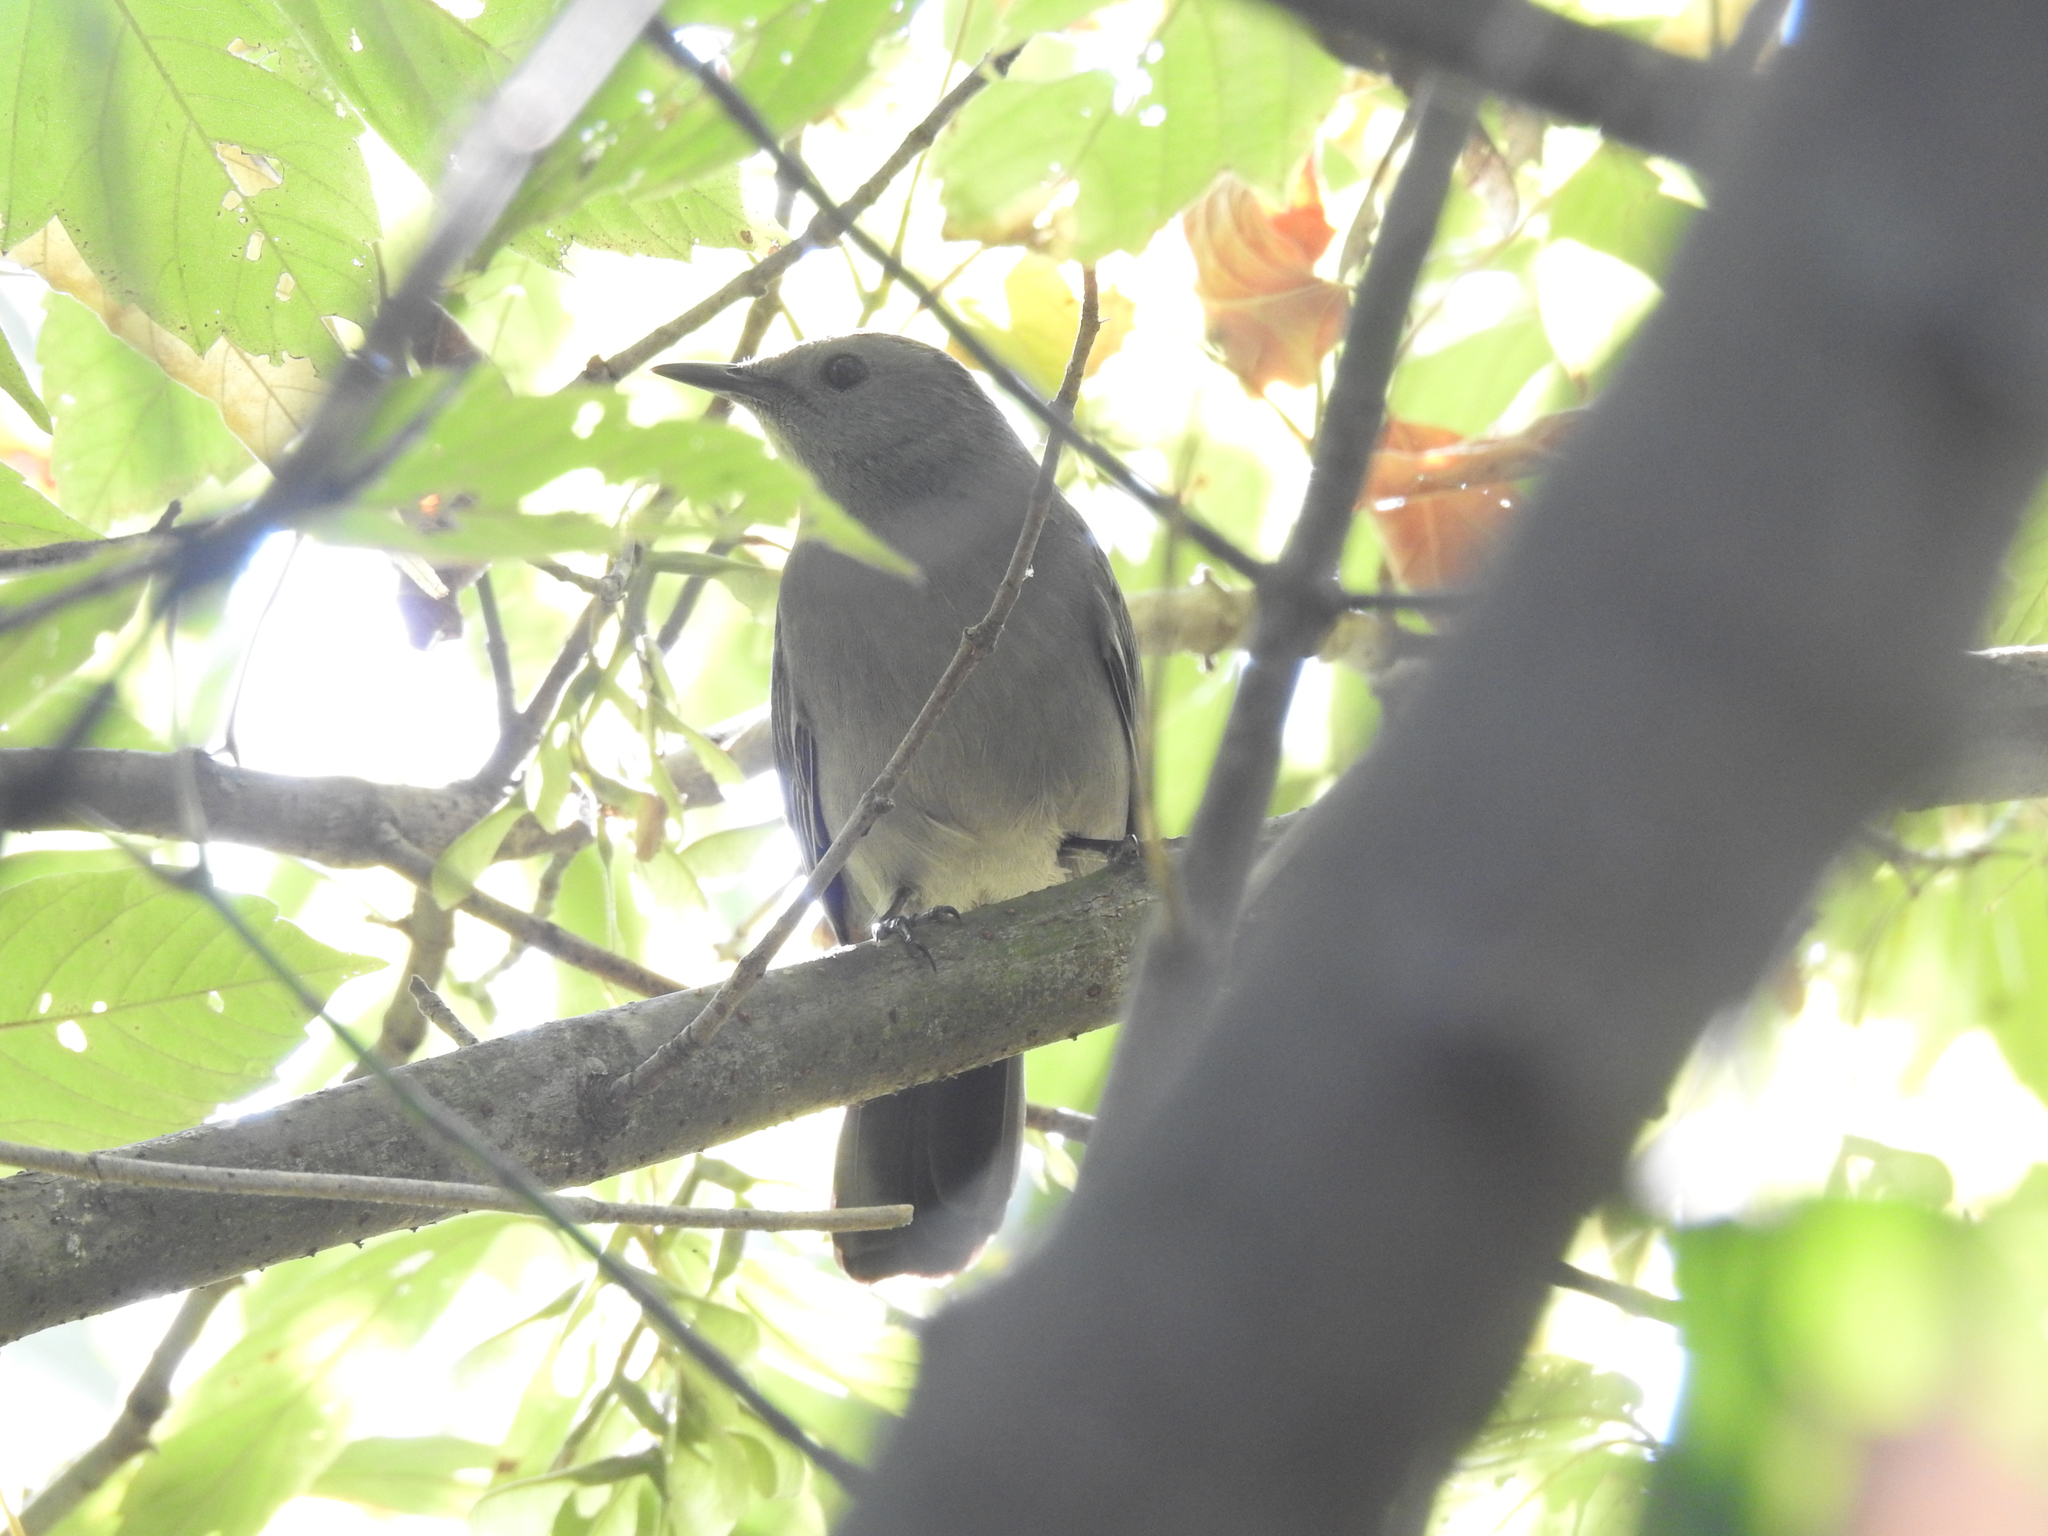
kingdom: Animalia
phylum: Chordata
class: Aves
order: Passeriformes
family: Mimidae
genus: Dumetella
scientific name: Dumetella carolinensis
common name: Gray catbird
